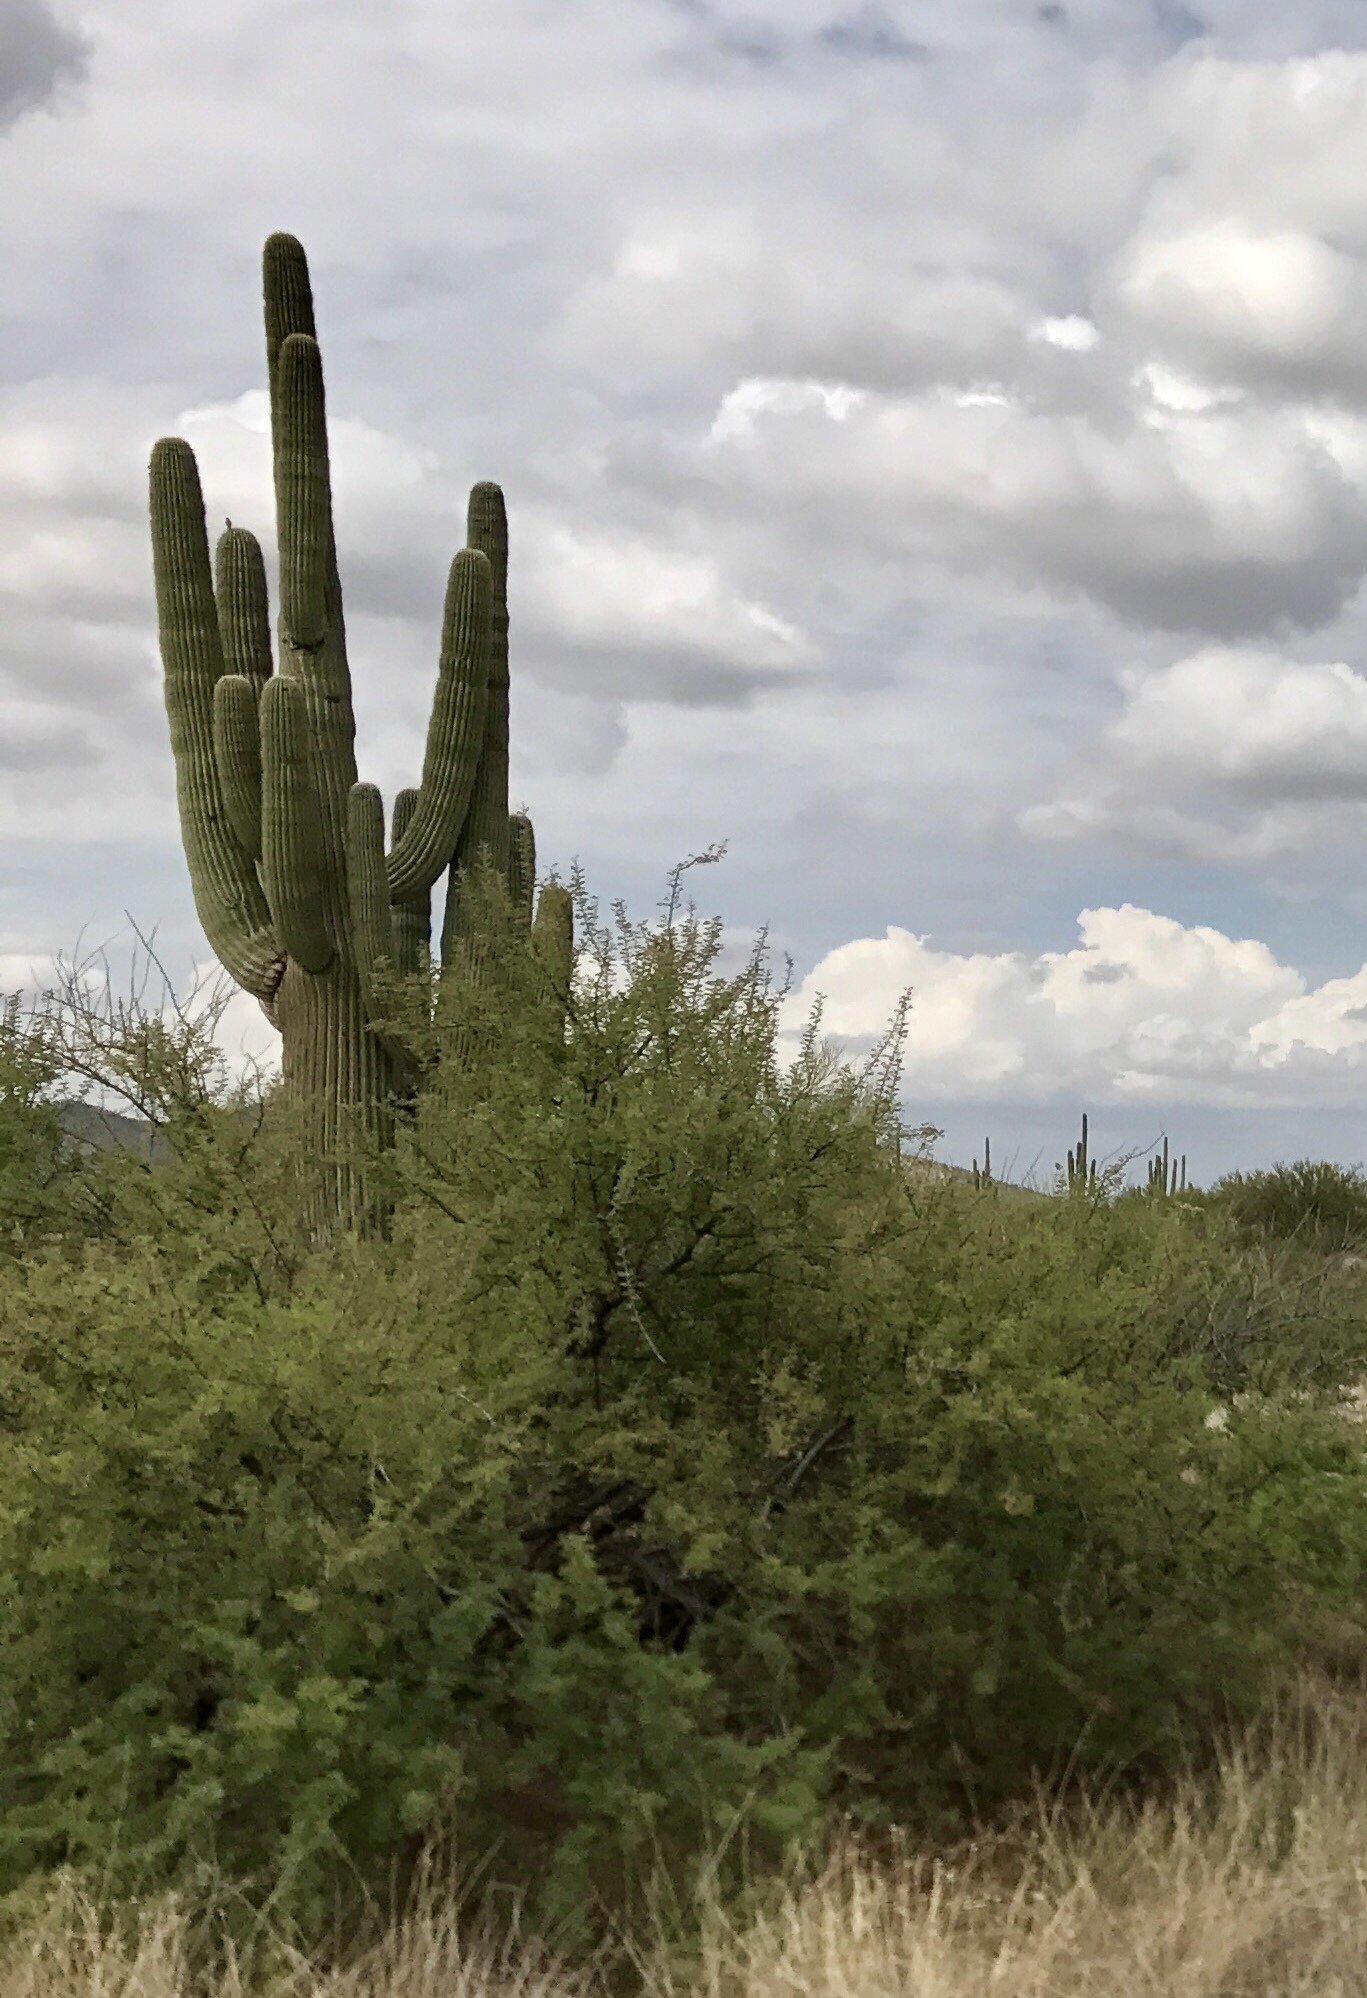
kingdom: Plantae
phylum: Tracheophyta
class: Magnoliopsida
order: Caryophyllales
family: Cactaceae
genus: Carnegiea
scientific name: Carnegiea gigantea
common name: Saguaro
